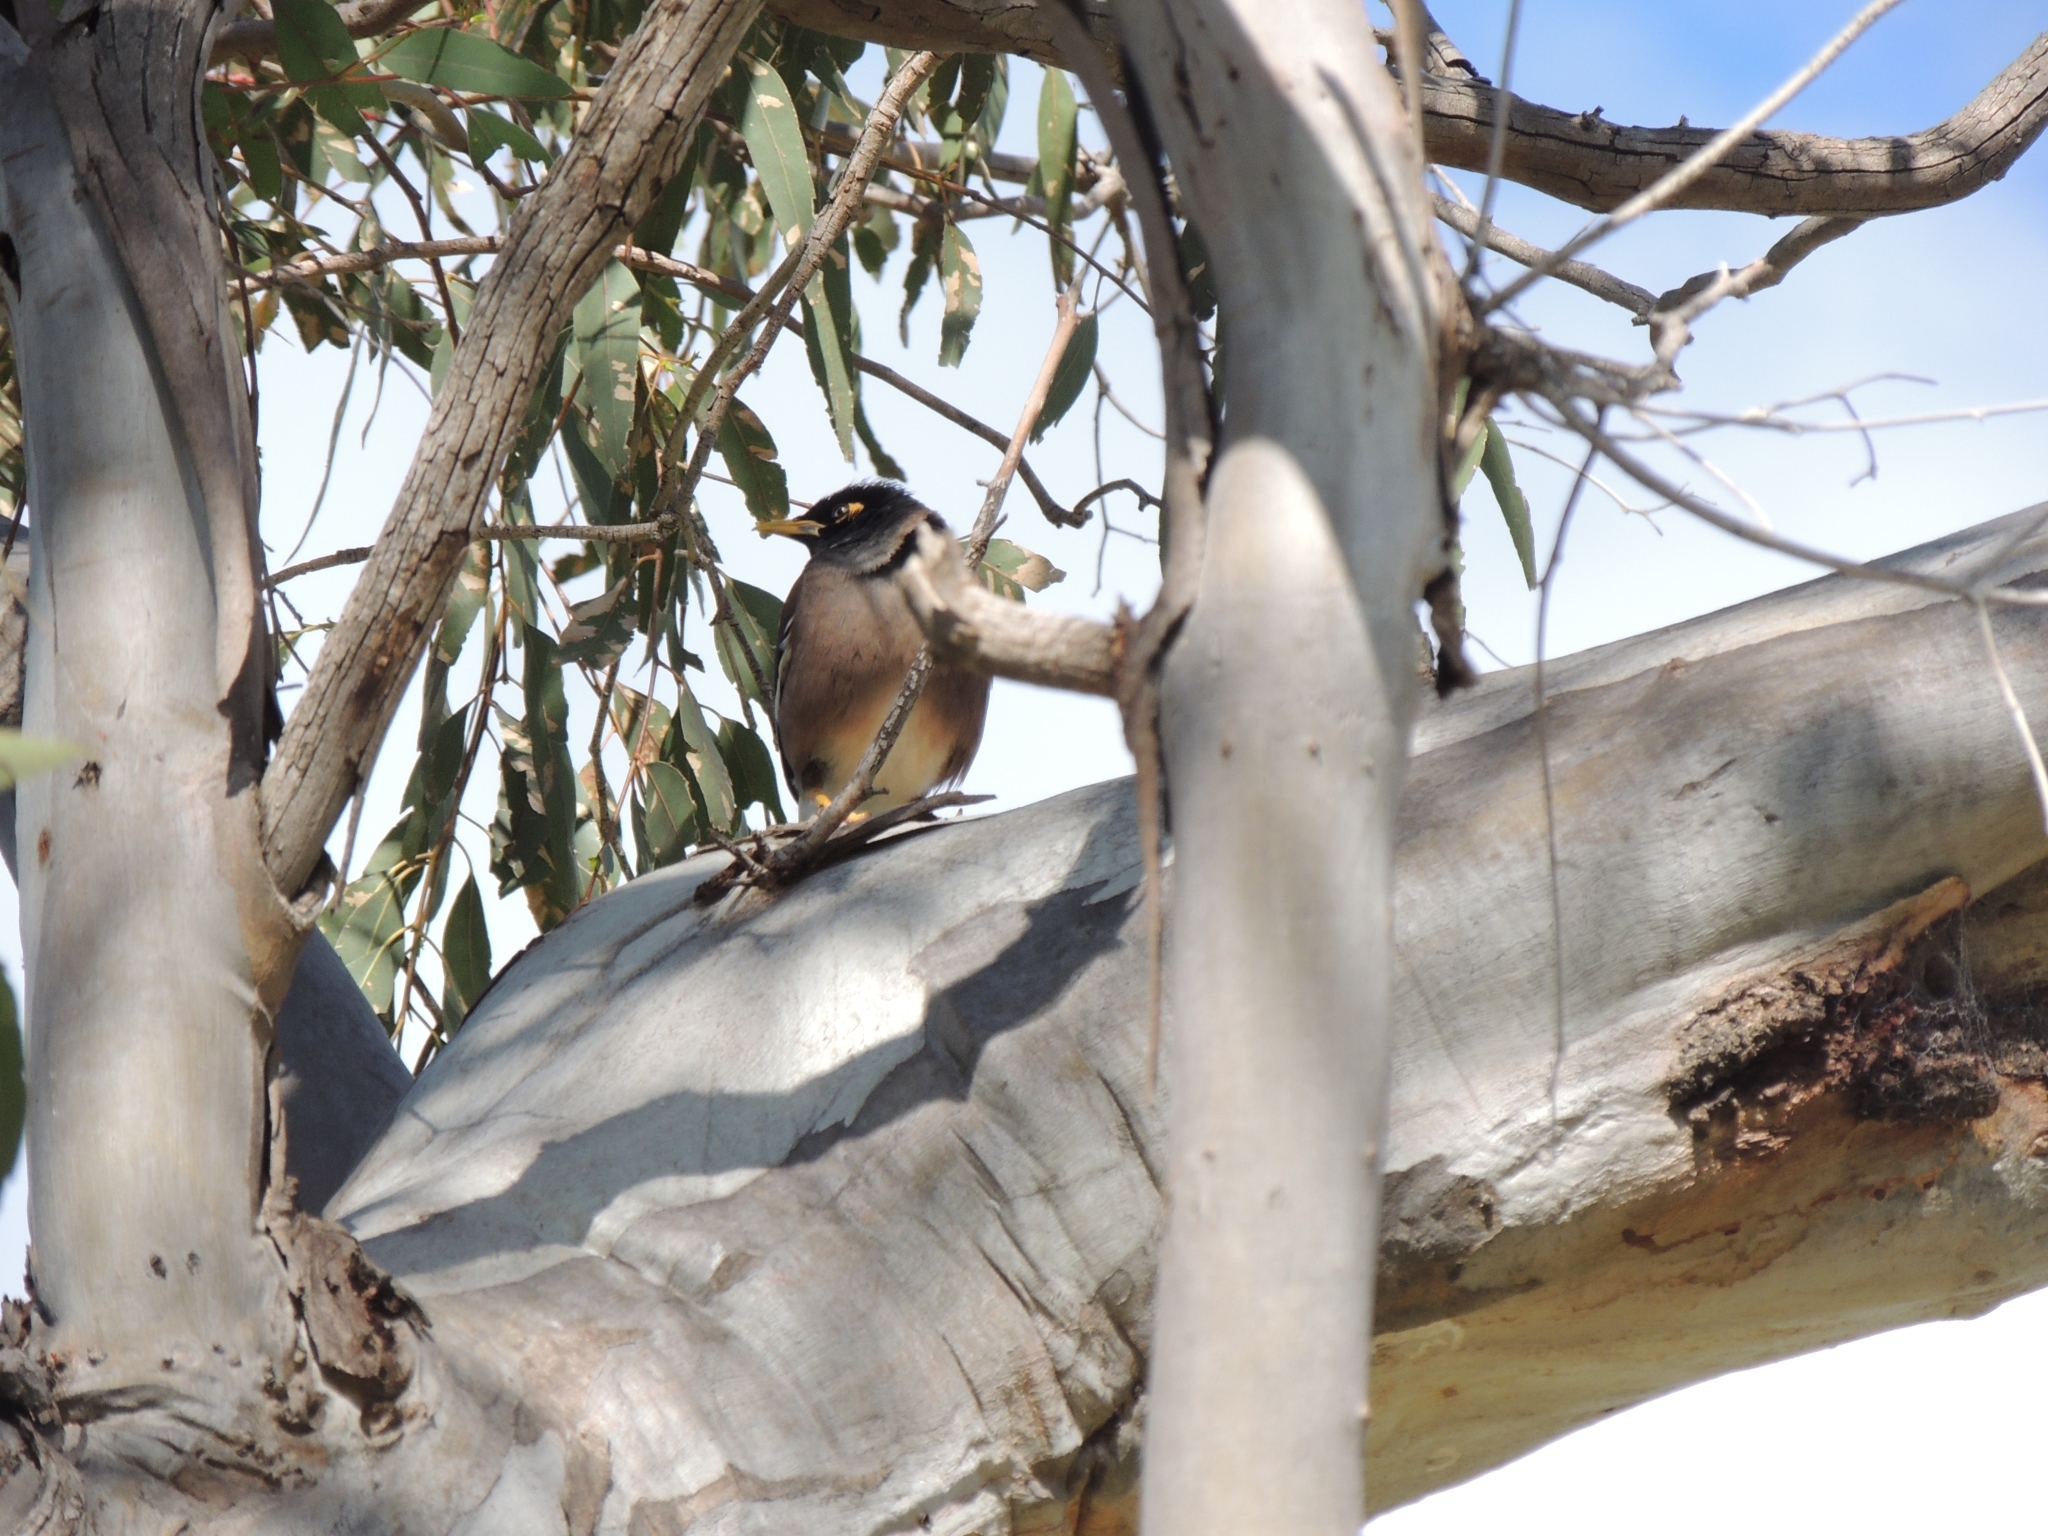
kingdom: Animalia
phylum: Chordata
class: Aves
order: Passeriformes
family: Sturnidae
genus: Acridotheres
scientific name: Acridotheres tristis
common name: Common myna
